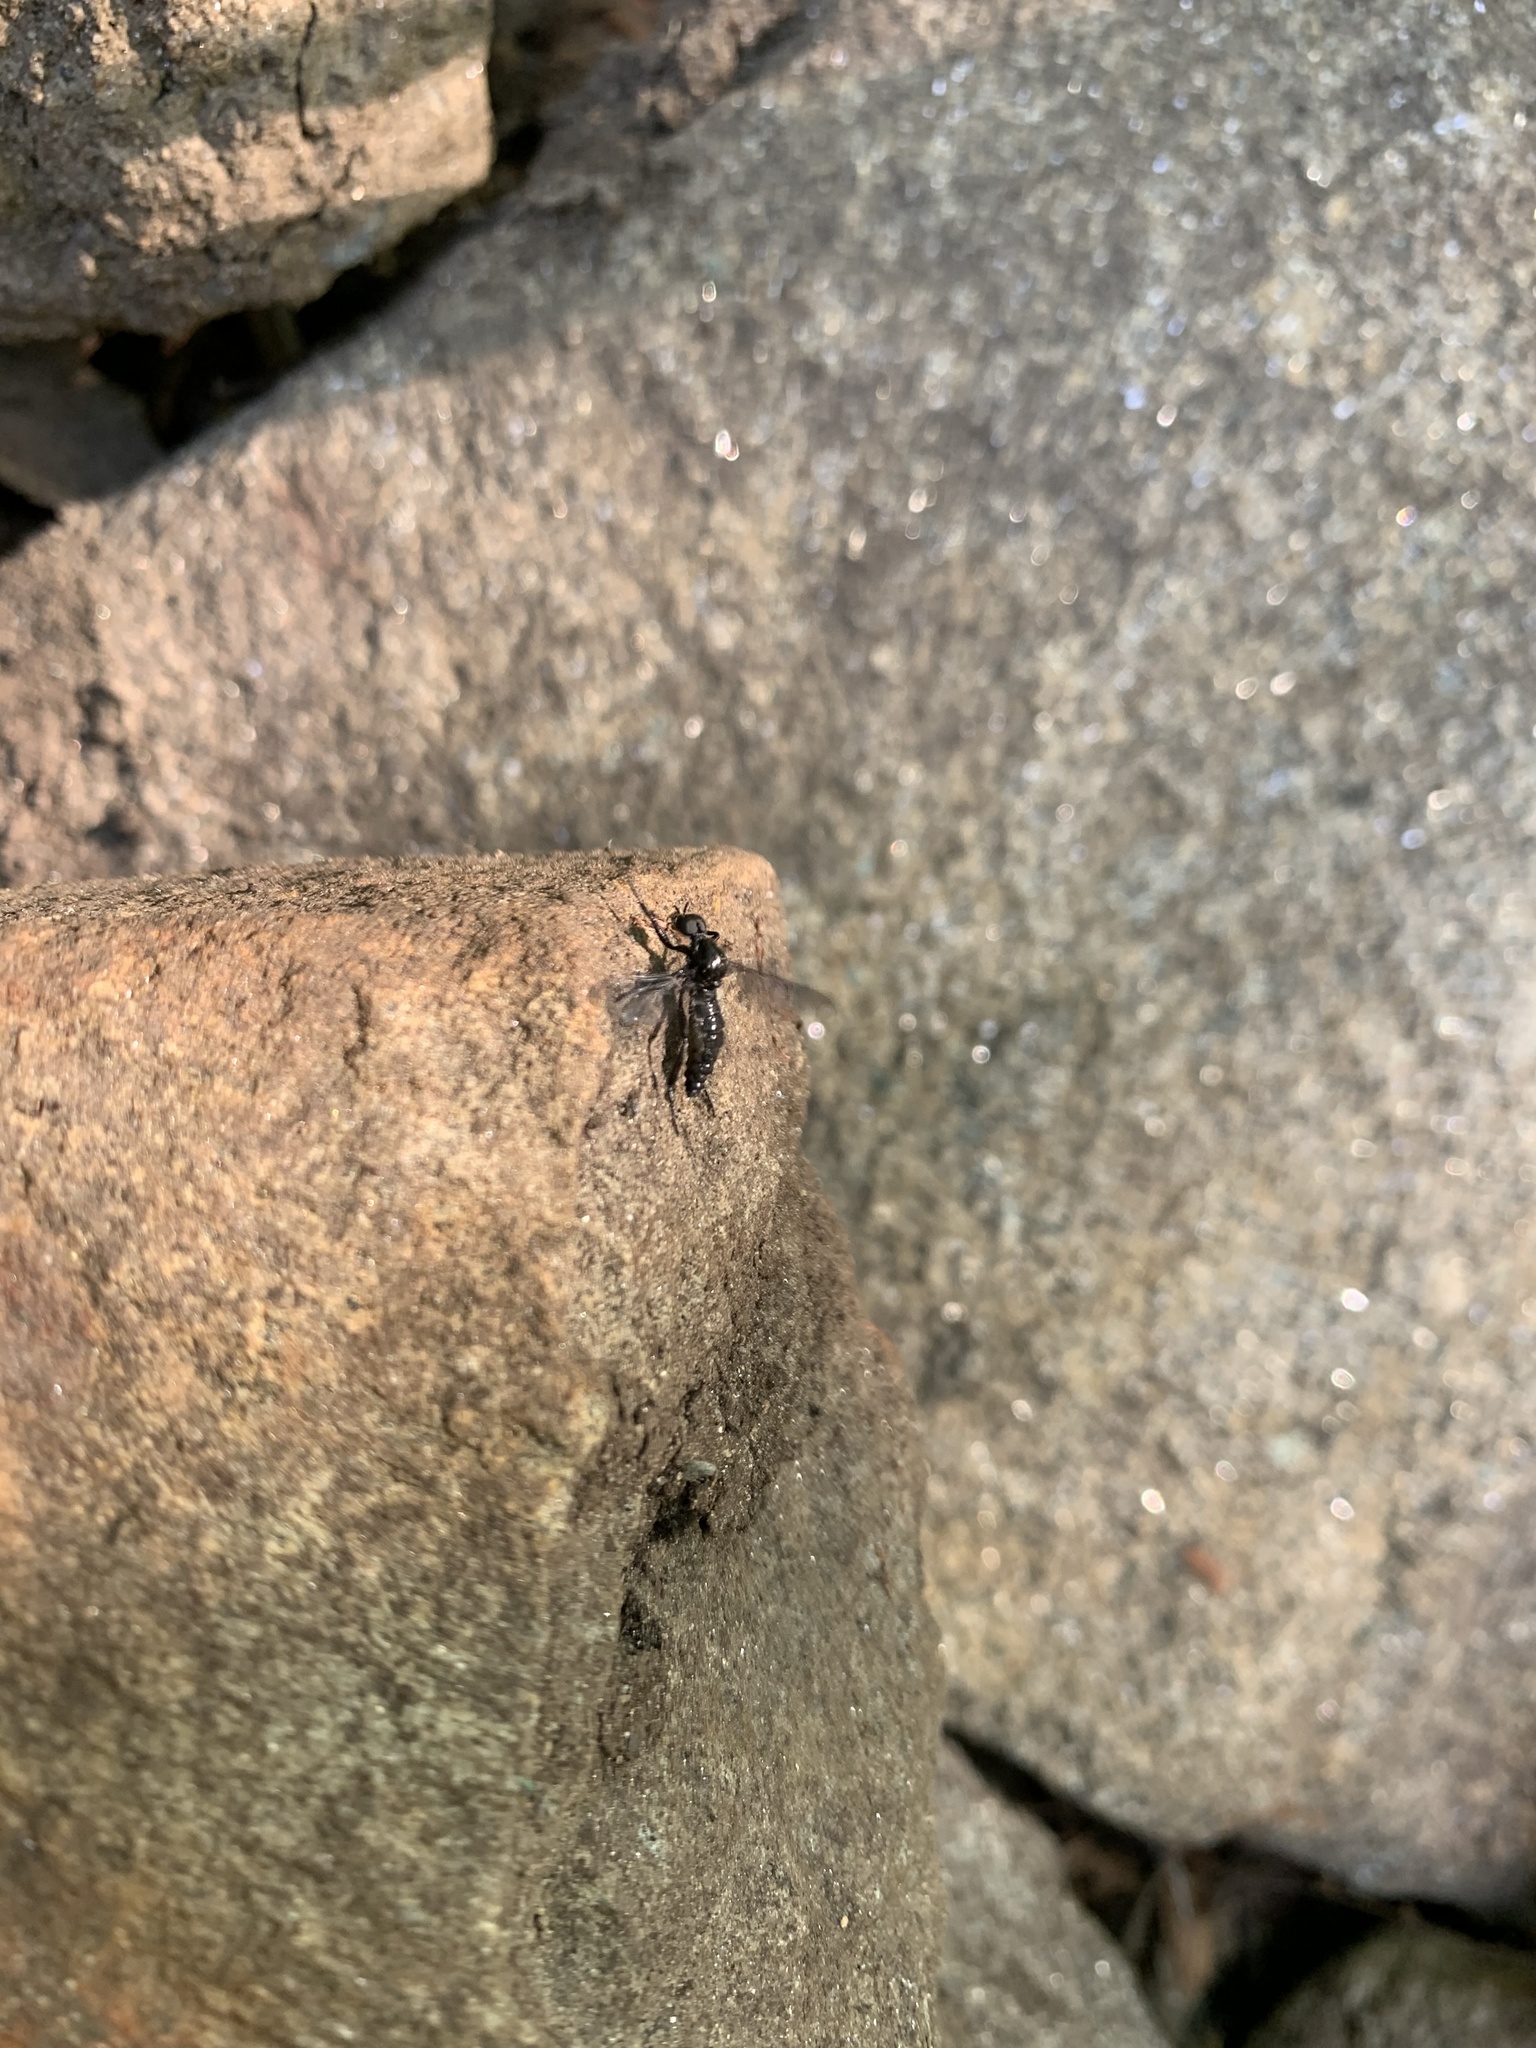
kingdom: Animalia
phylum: Arthropoda
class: Insecta
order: Diptera
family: Bibionidae
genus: Bibio
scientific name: Bibio superfluus
